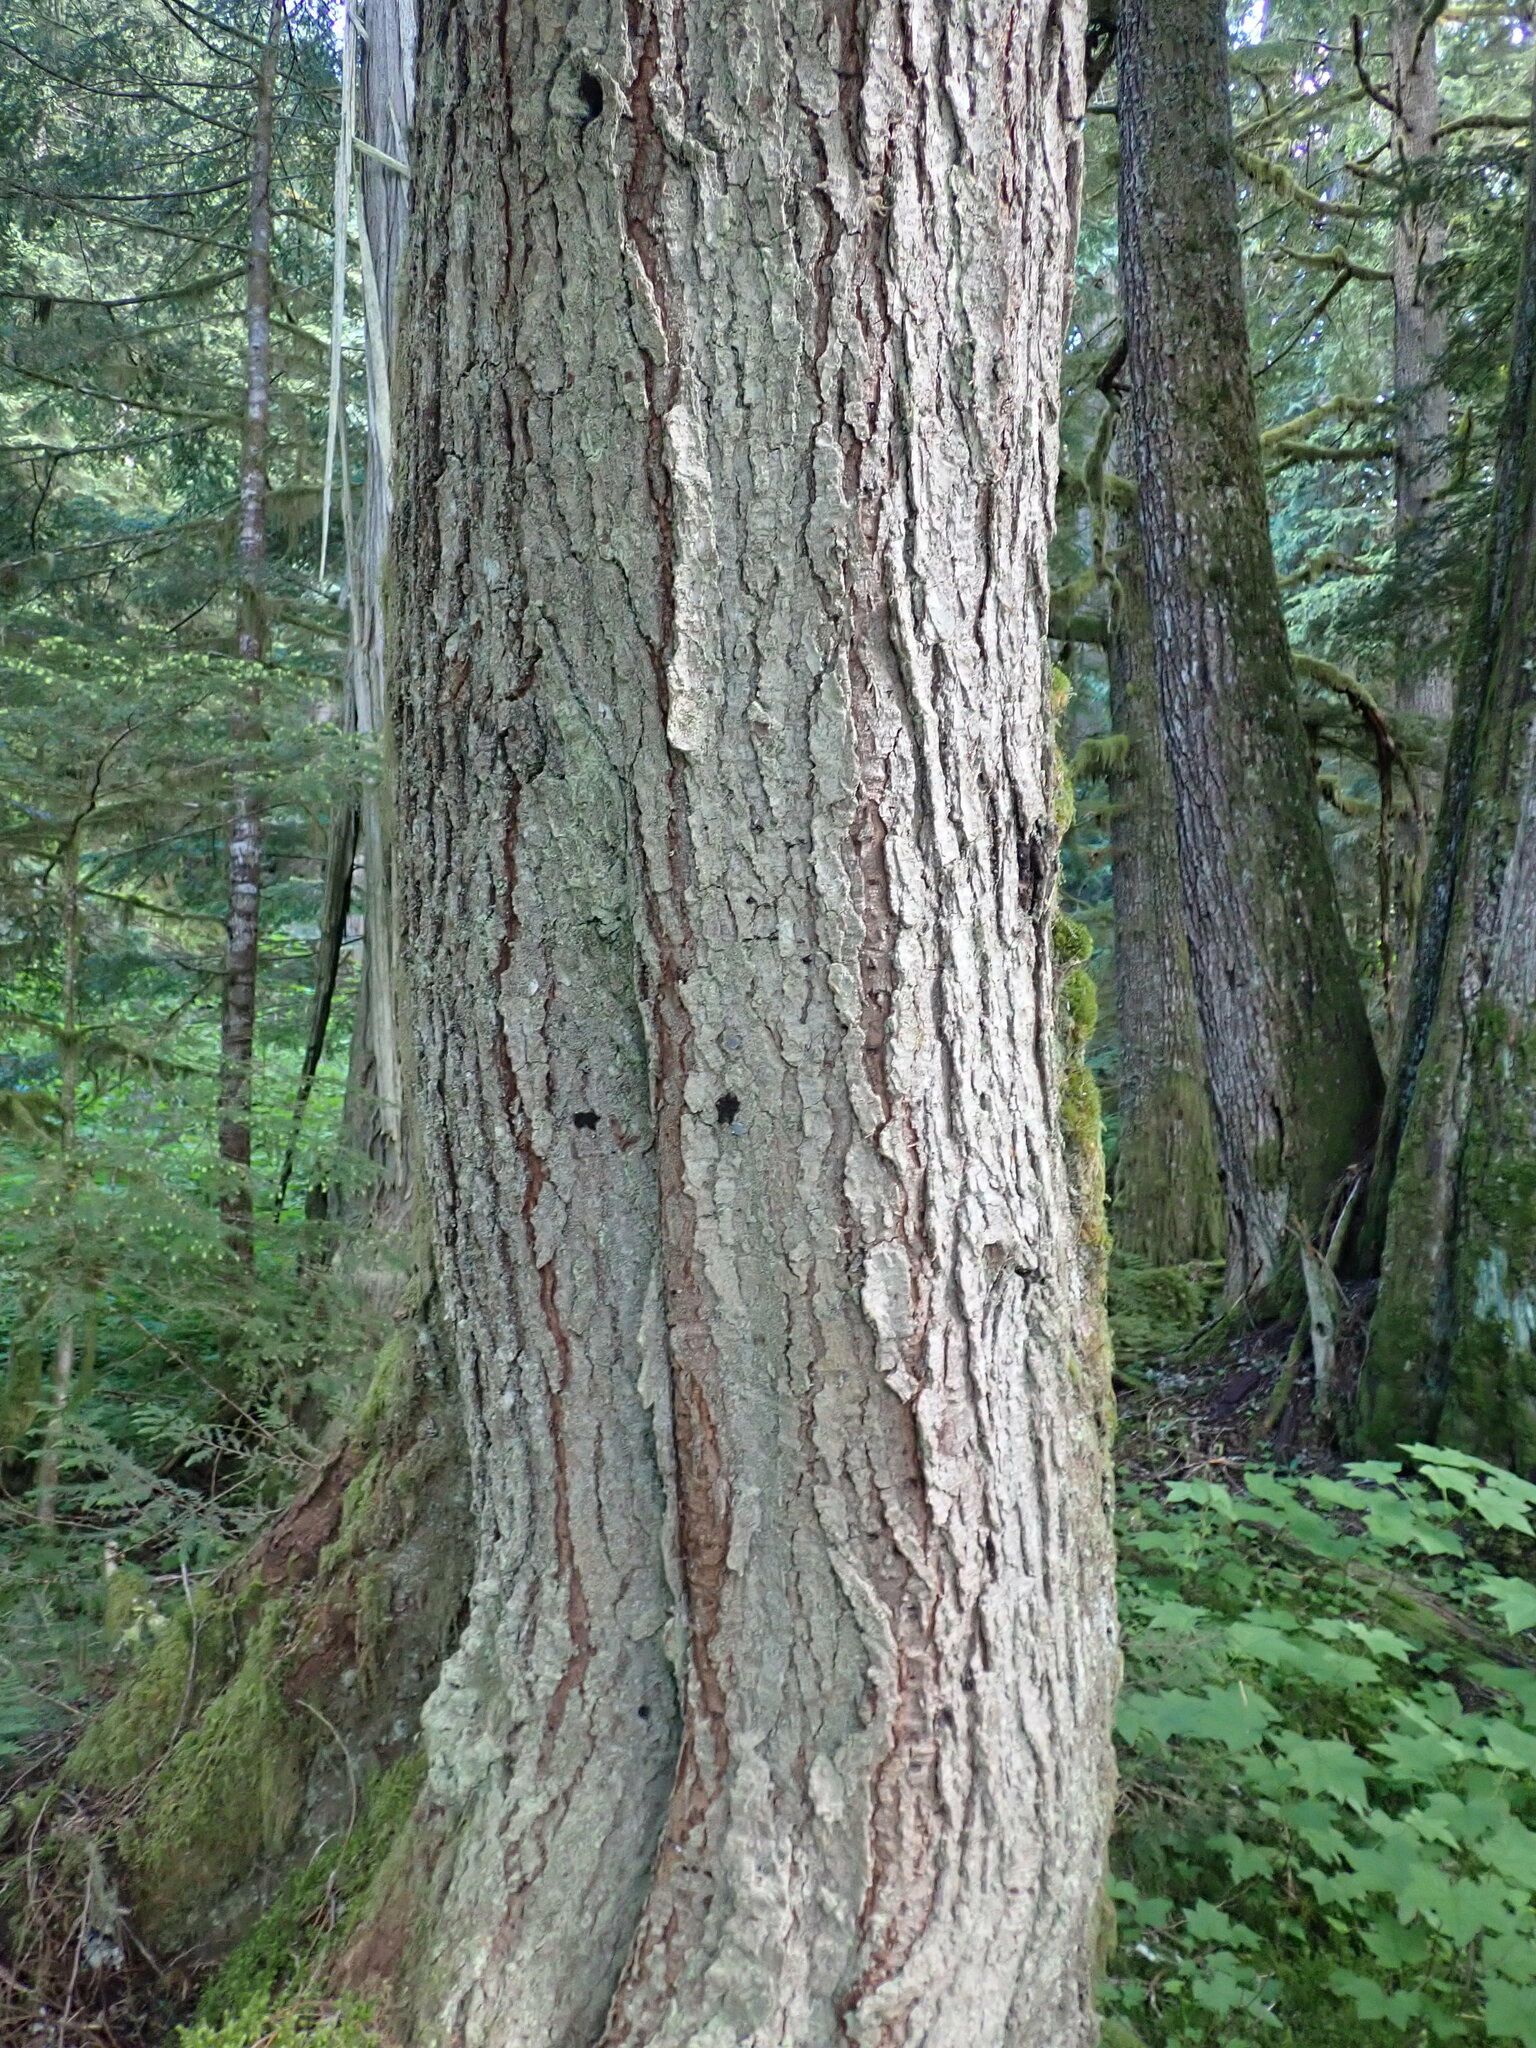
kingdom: Plantae
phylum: Tracheophyta
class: Pinopsida
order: Pinales
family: Pinaceae
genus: Tsuga
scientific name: Tsuga heterophylla
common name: Western hemlock
